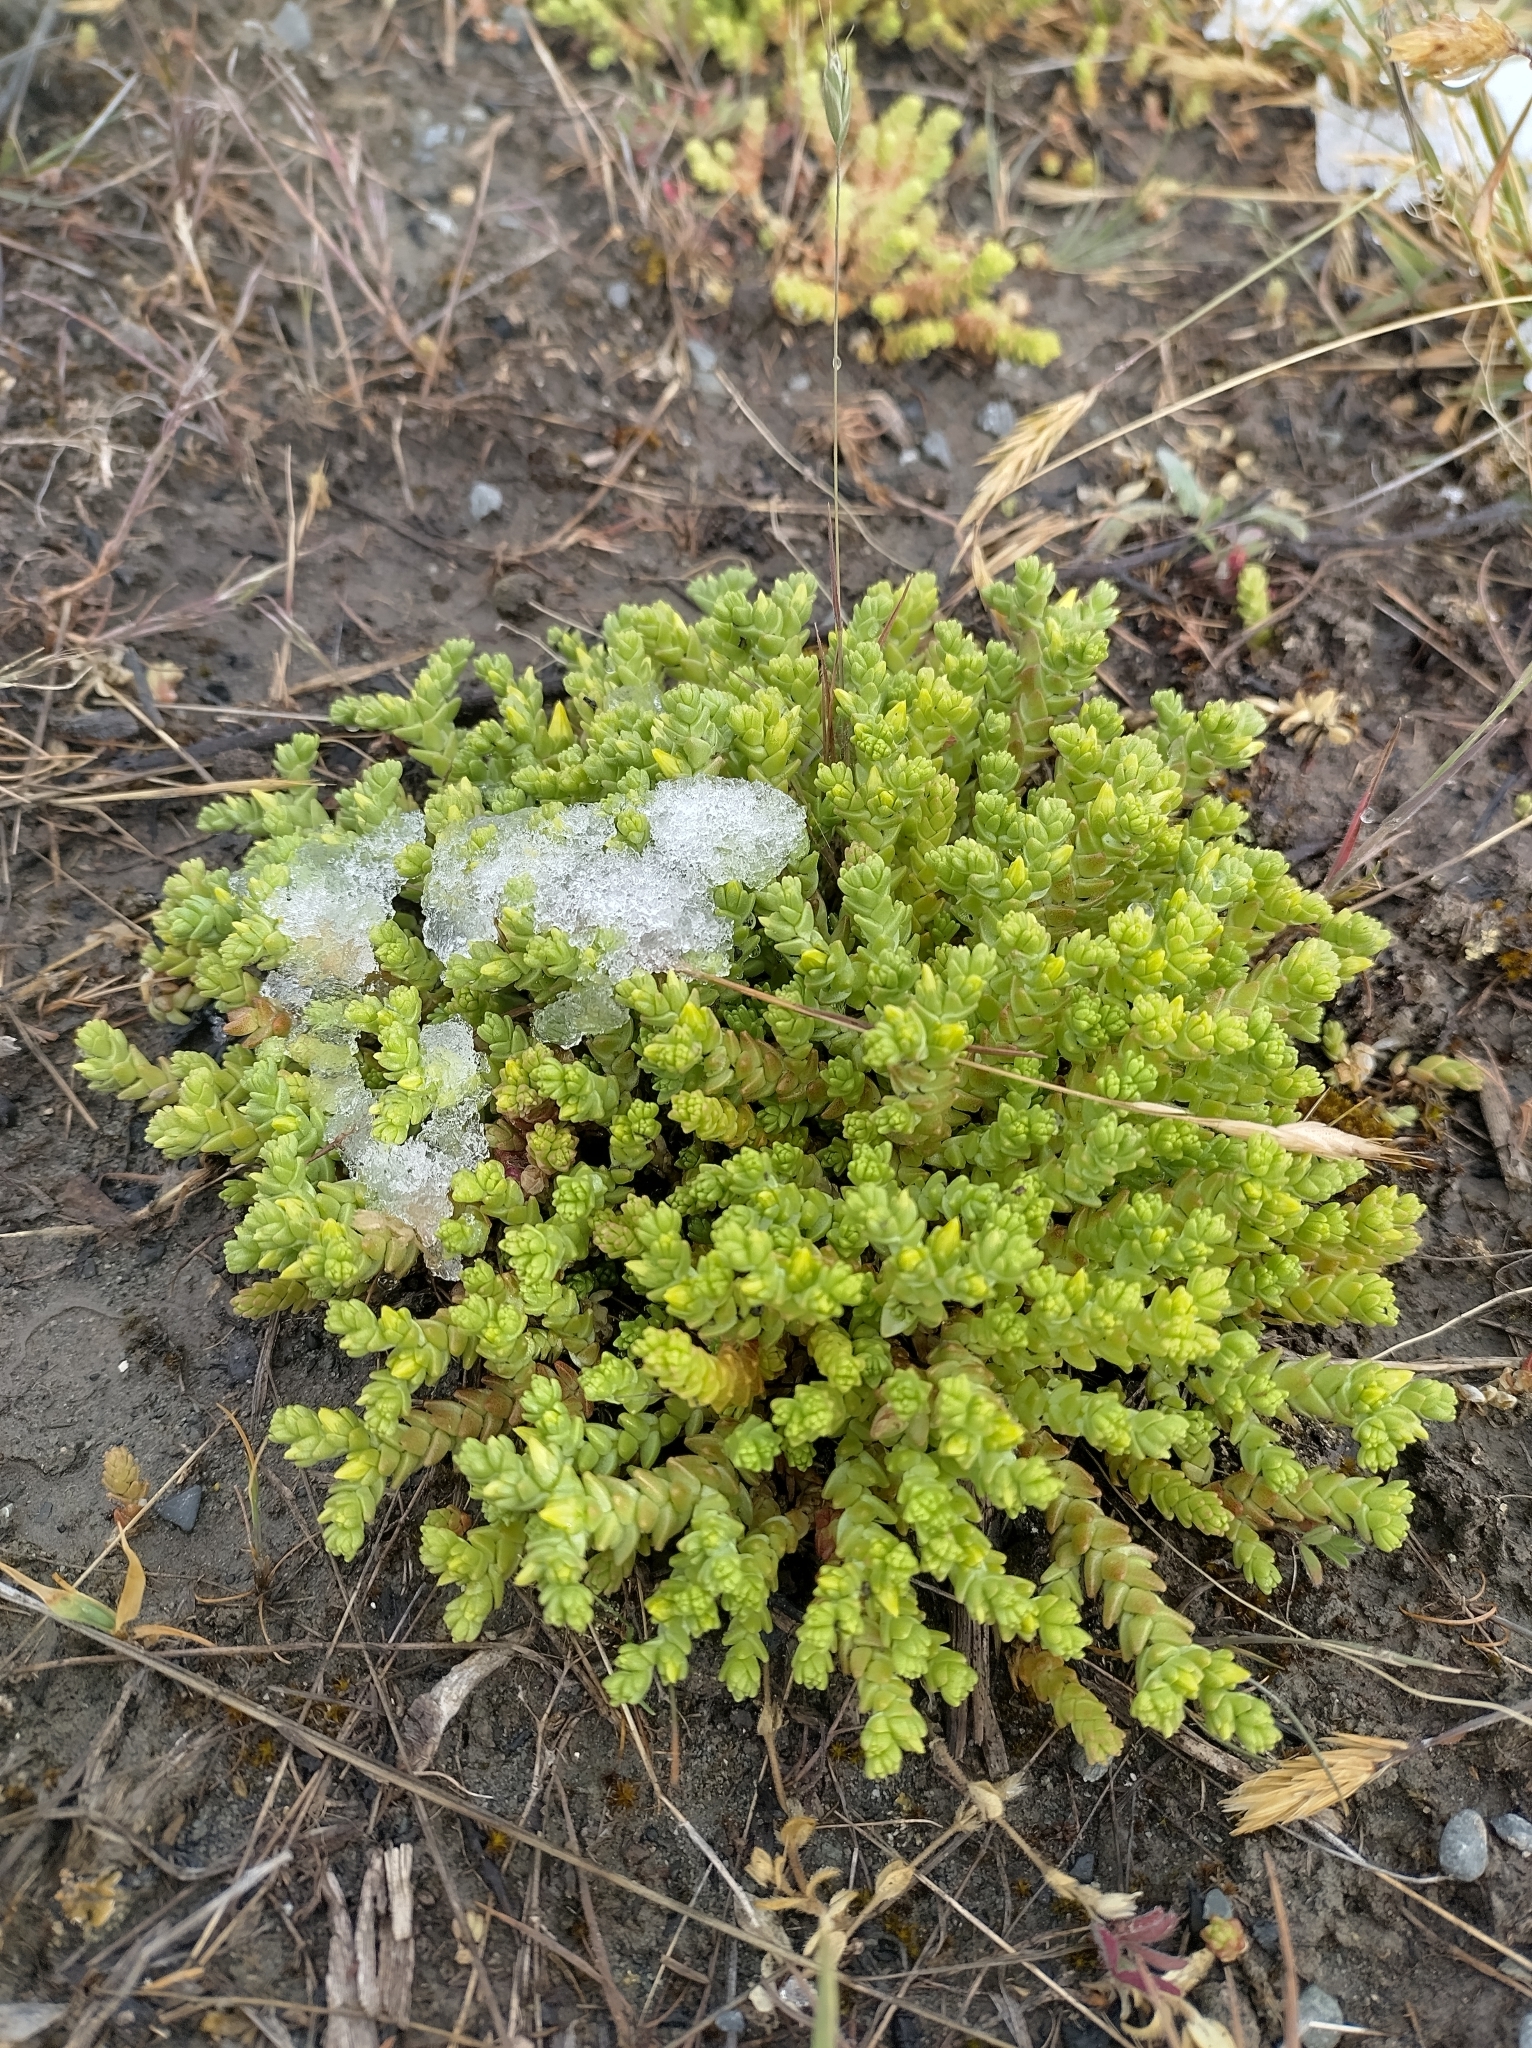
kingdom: Plantae
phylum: Tracheophyta
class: Magnoliopsida
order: Saxifragales
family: Crassulaceae
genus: Sedum
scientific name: Sedum acre
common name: Biting stonecrop
